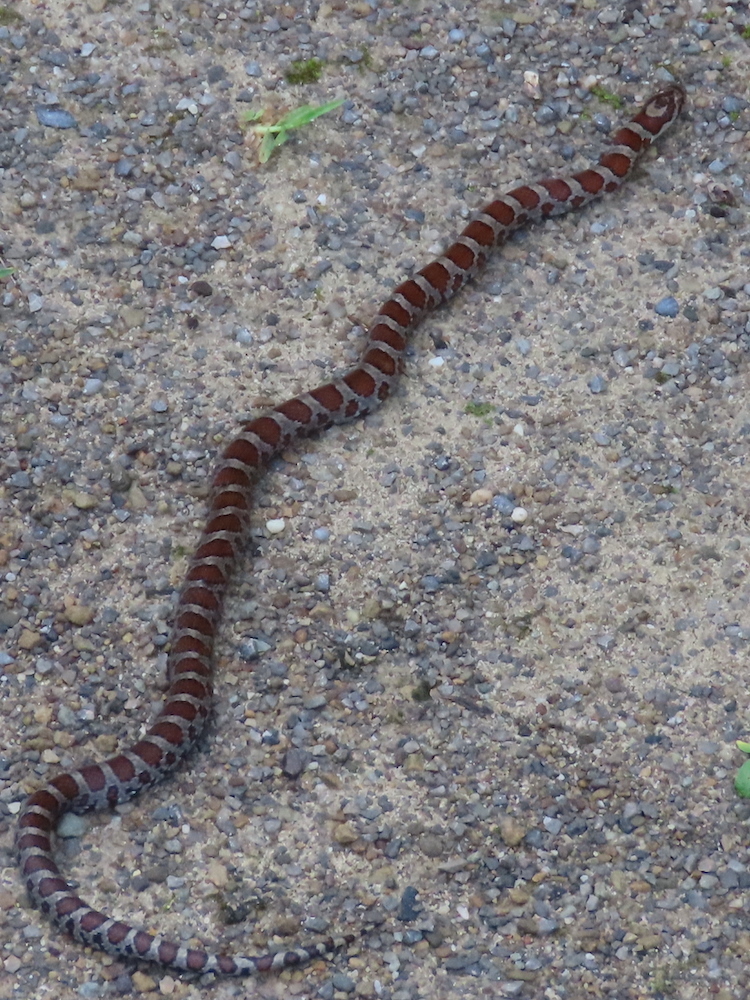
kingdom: Animalia
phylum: Chordata
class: Squamata
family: Colubridae
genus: Lampropeltis
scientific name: Lampropeltis triangulum
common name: Eastern milksnake
